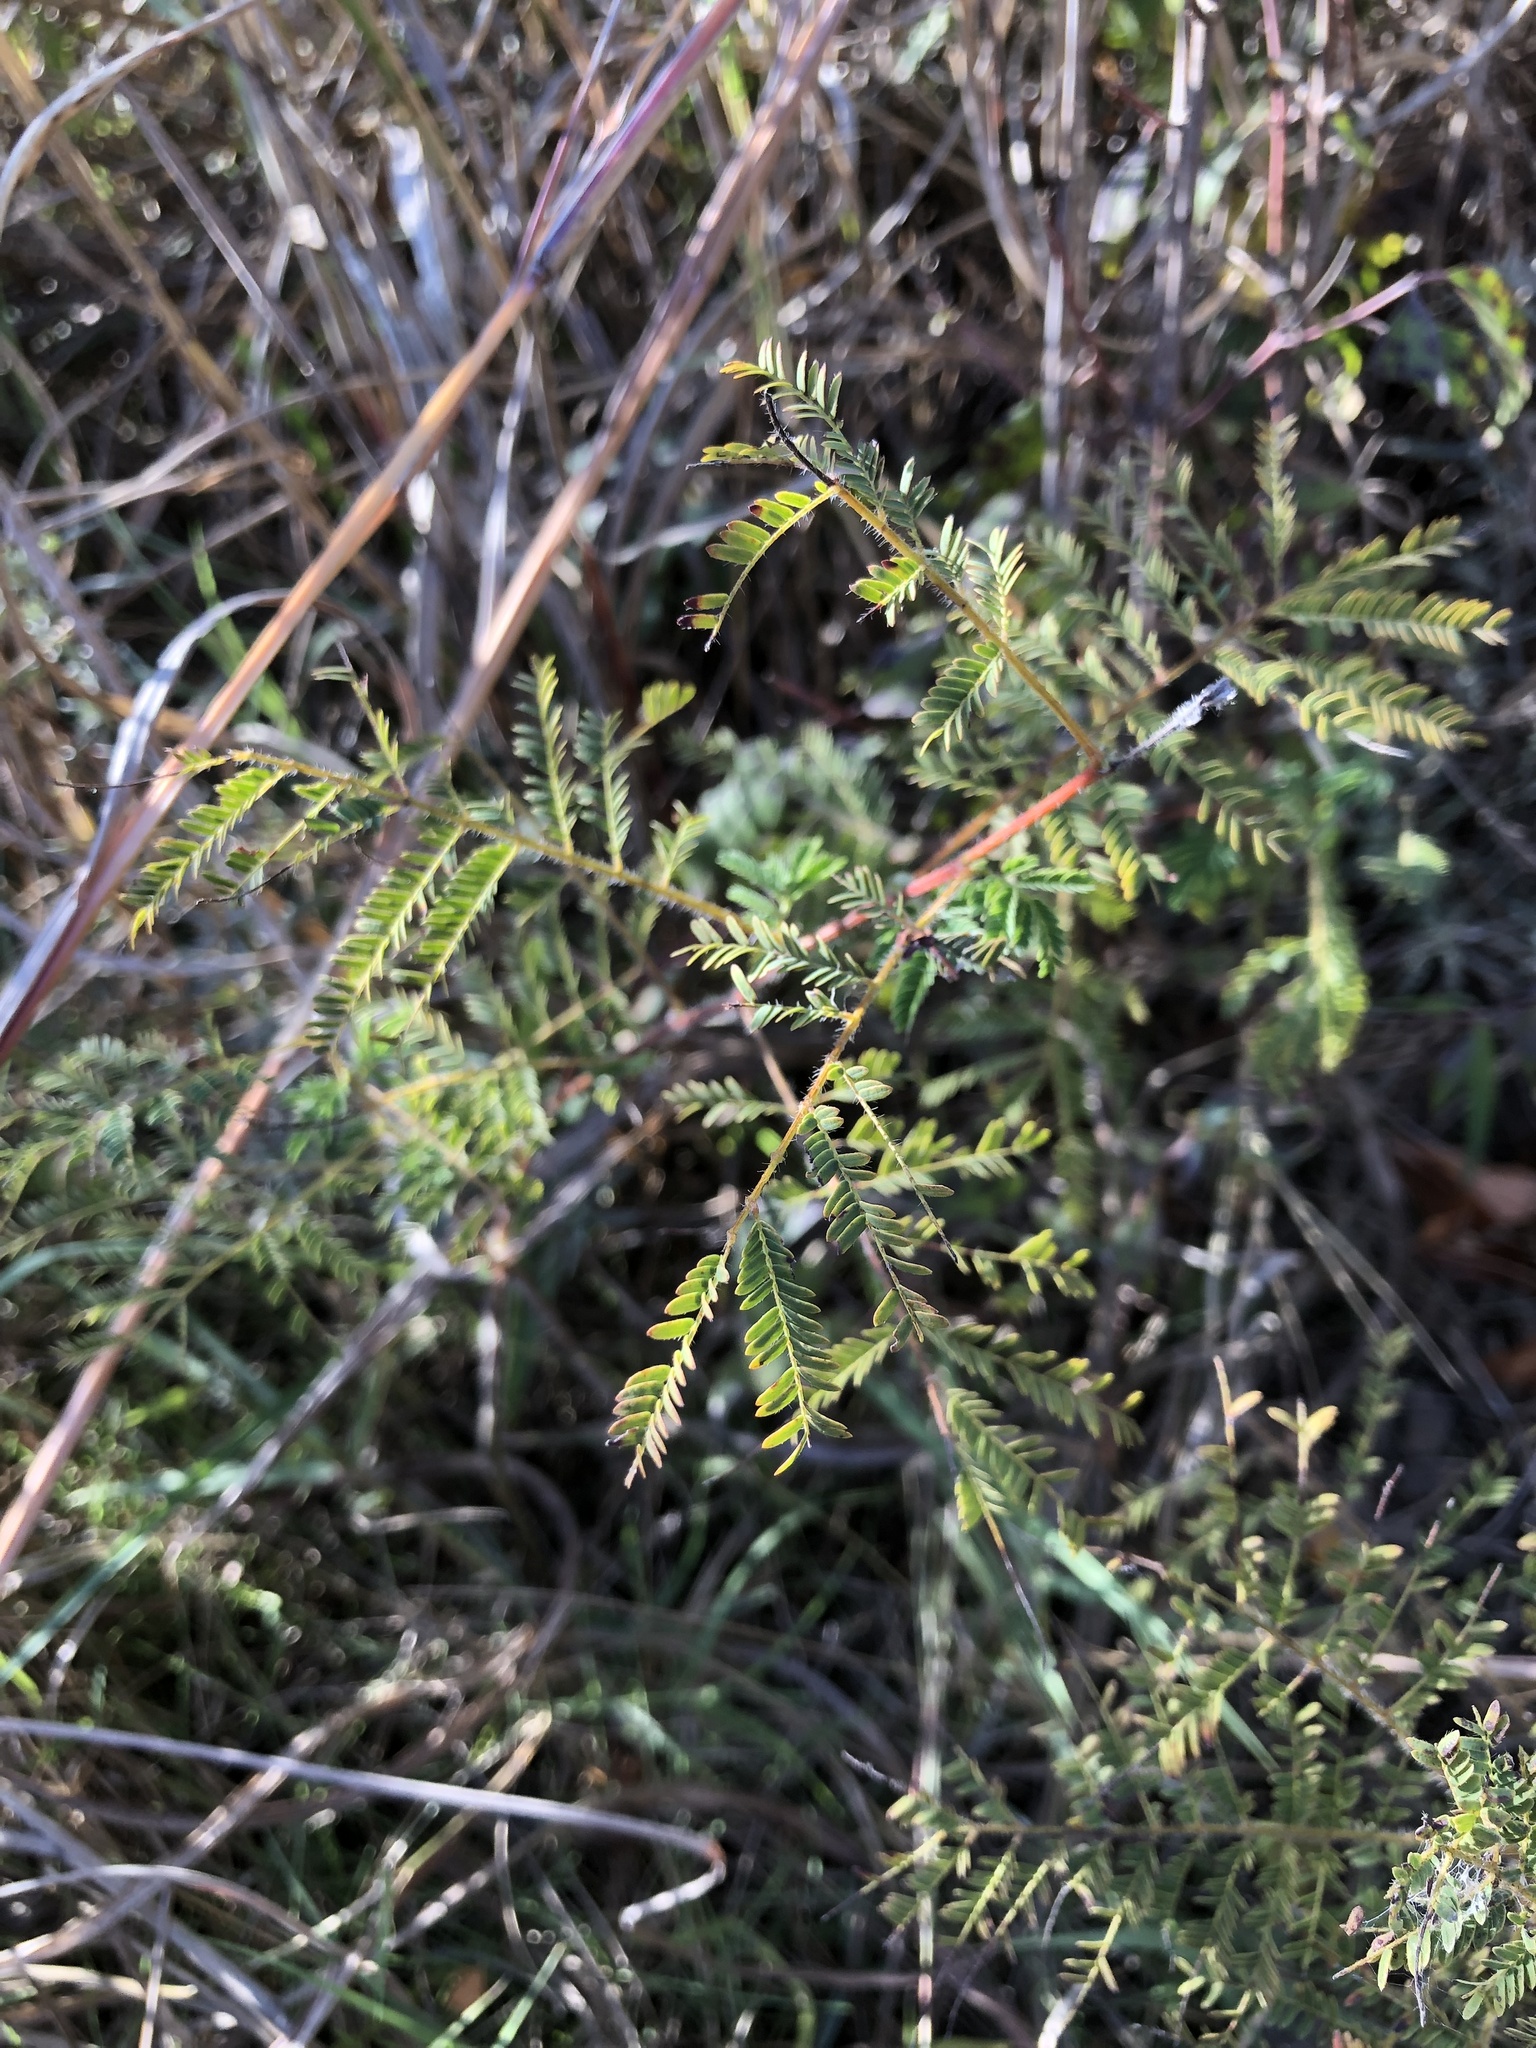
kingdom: Plantae
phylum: Tracheophyta
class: Magnoliopsida
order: Fabales
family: Fabaceae
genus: Desmanthus
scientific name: Desmanthus illinoensis
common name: Illinois bundle-flower
